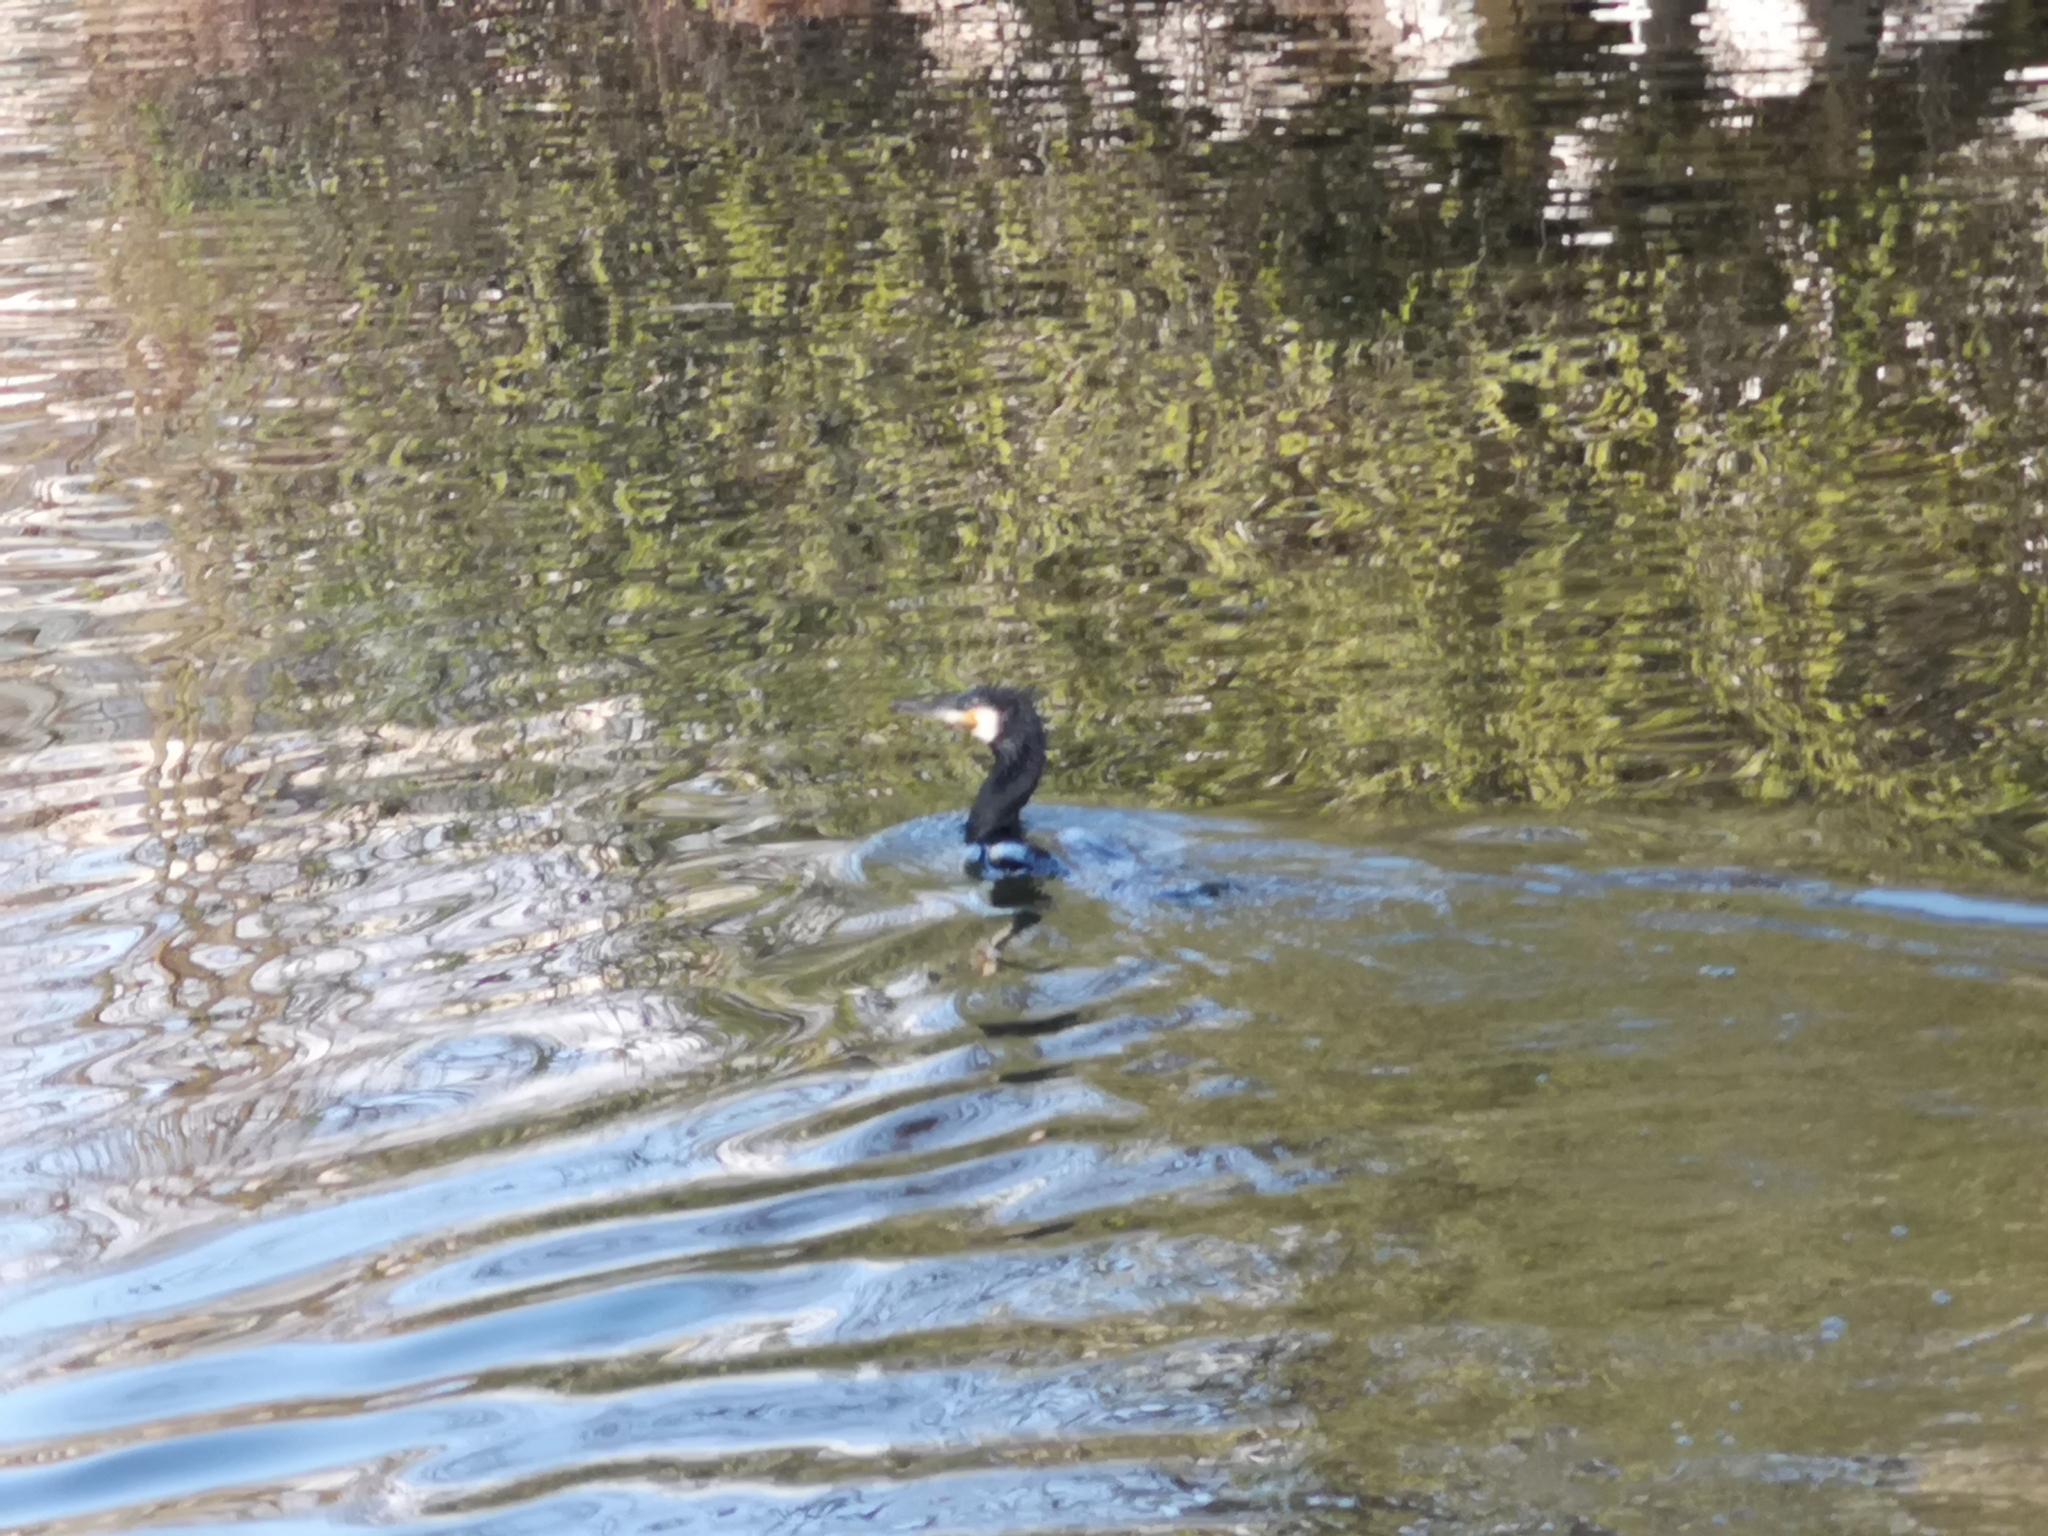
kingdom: Animalia
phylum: Chordata
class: Aves
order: Suliformes
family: Phalacrocoracidae
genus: Phalacrocorax
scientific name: Phalacrocorax carbo
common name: Great cormorant
